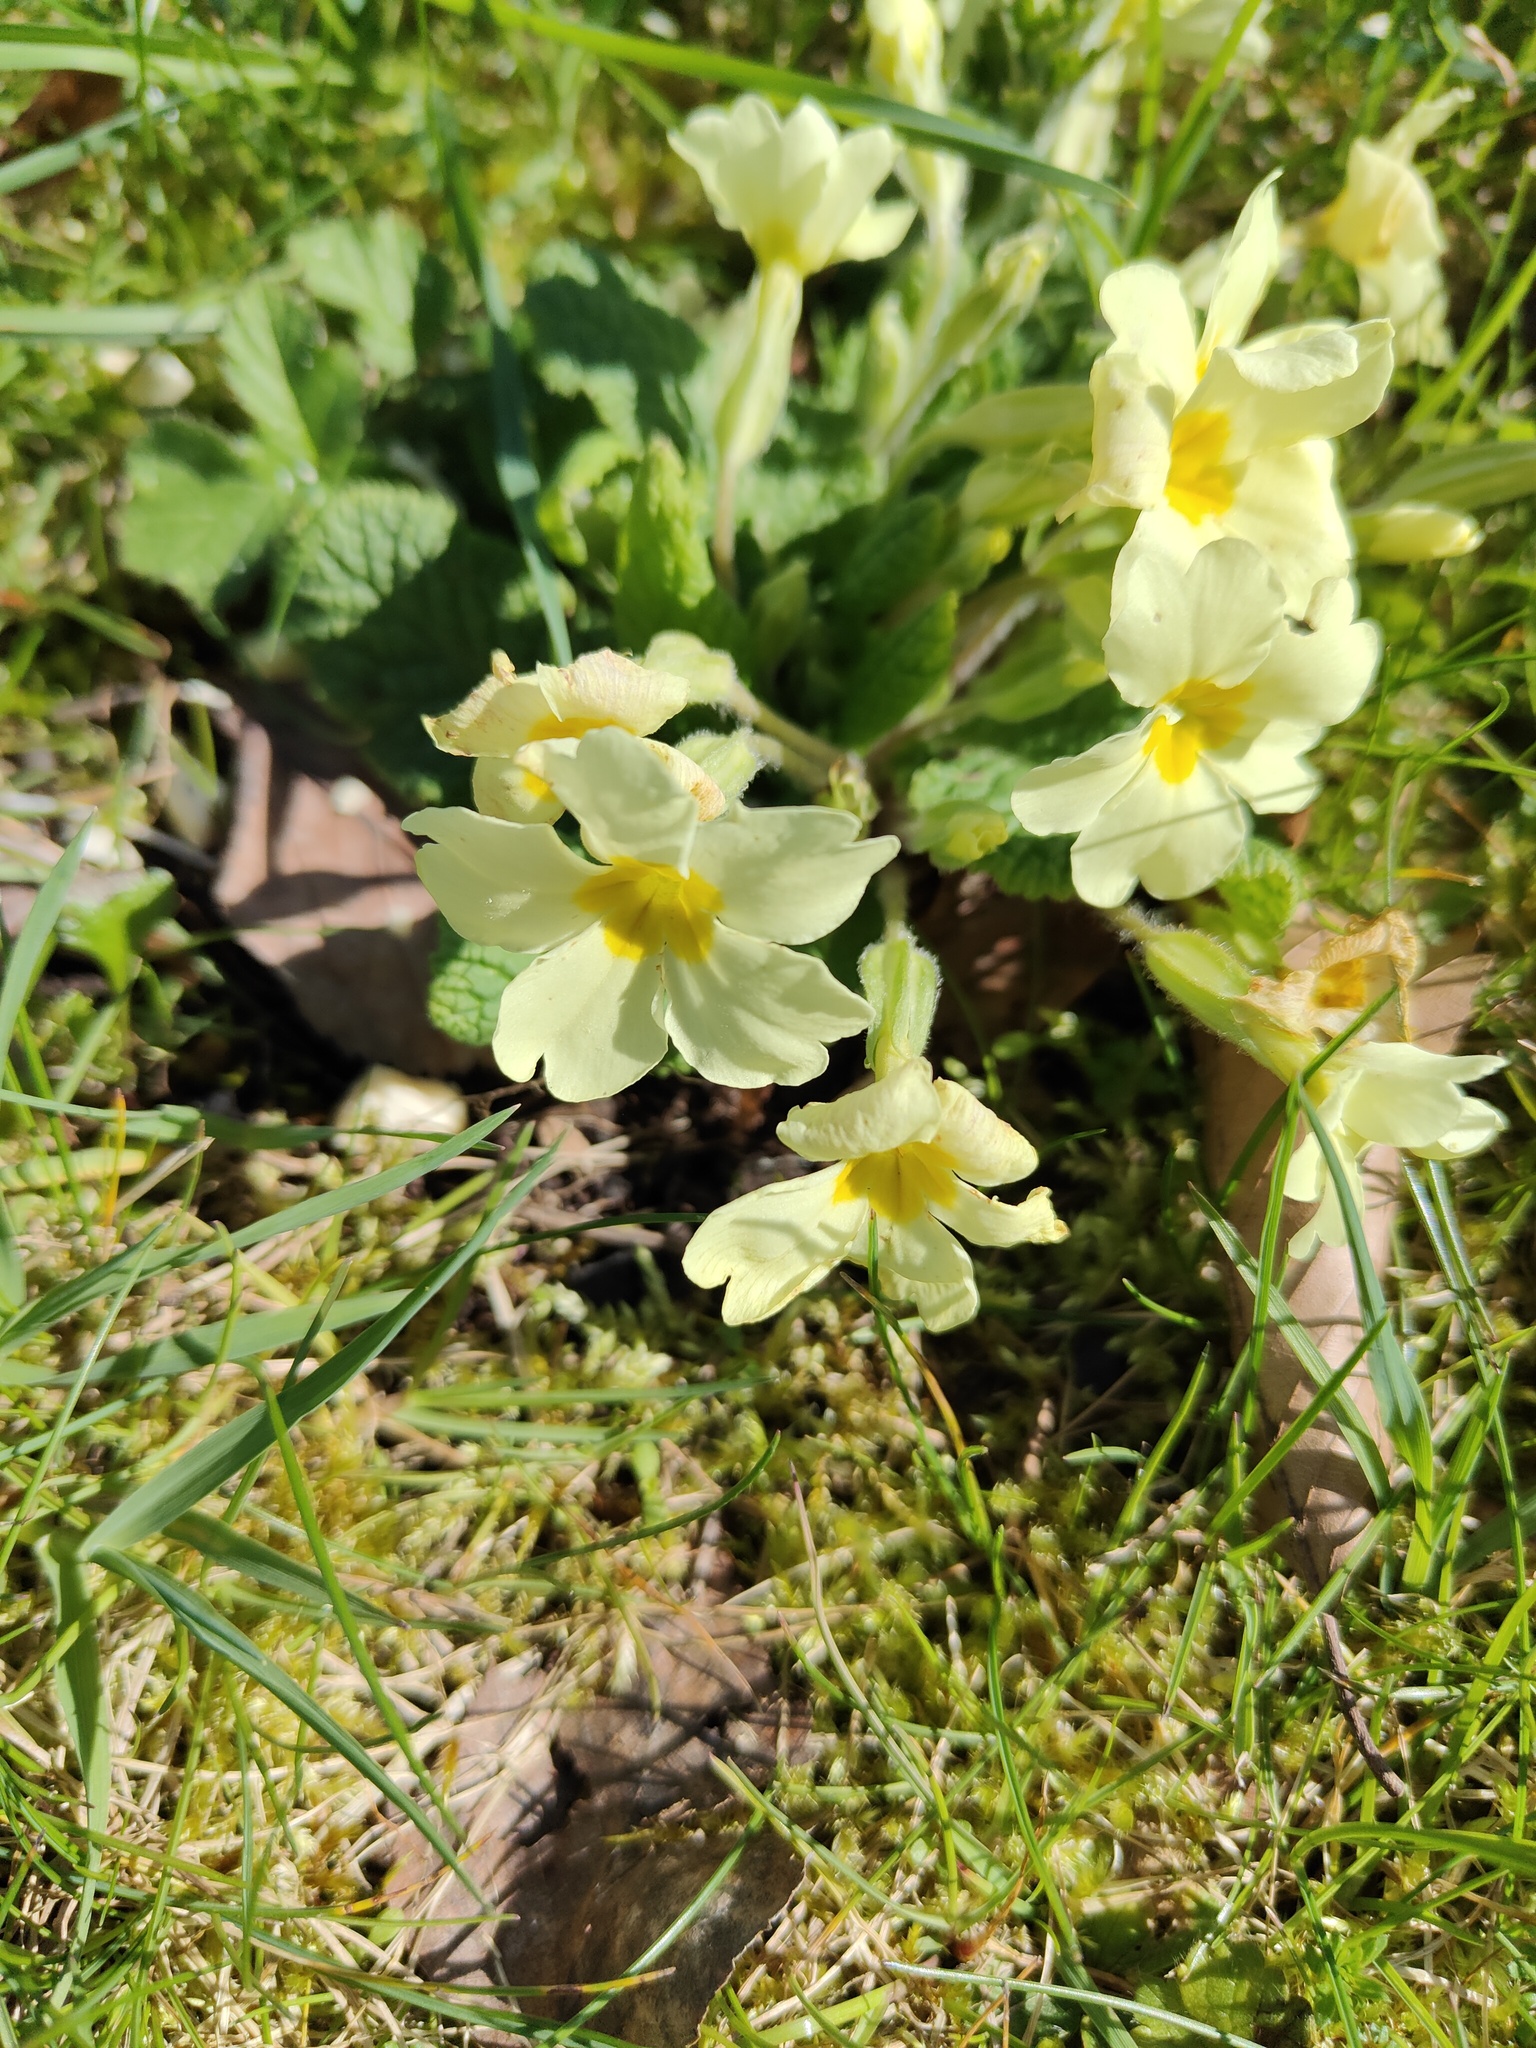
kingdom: Plantae
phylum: Tracheophyta
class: Magnoliopsida
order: Ericales
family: Primulaceae
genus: Primula
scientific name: Primula vulgaris
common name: Primrose
